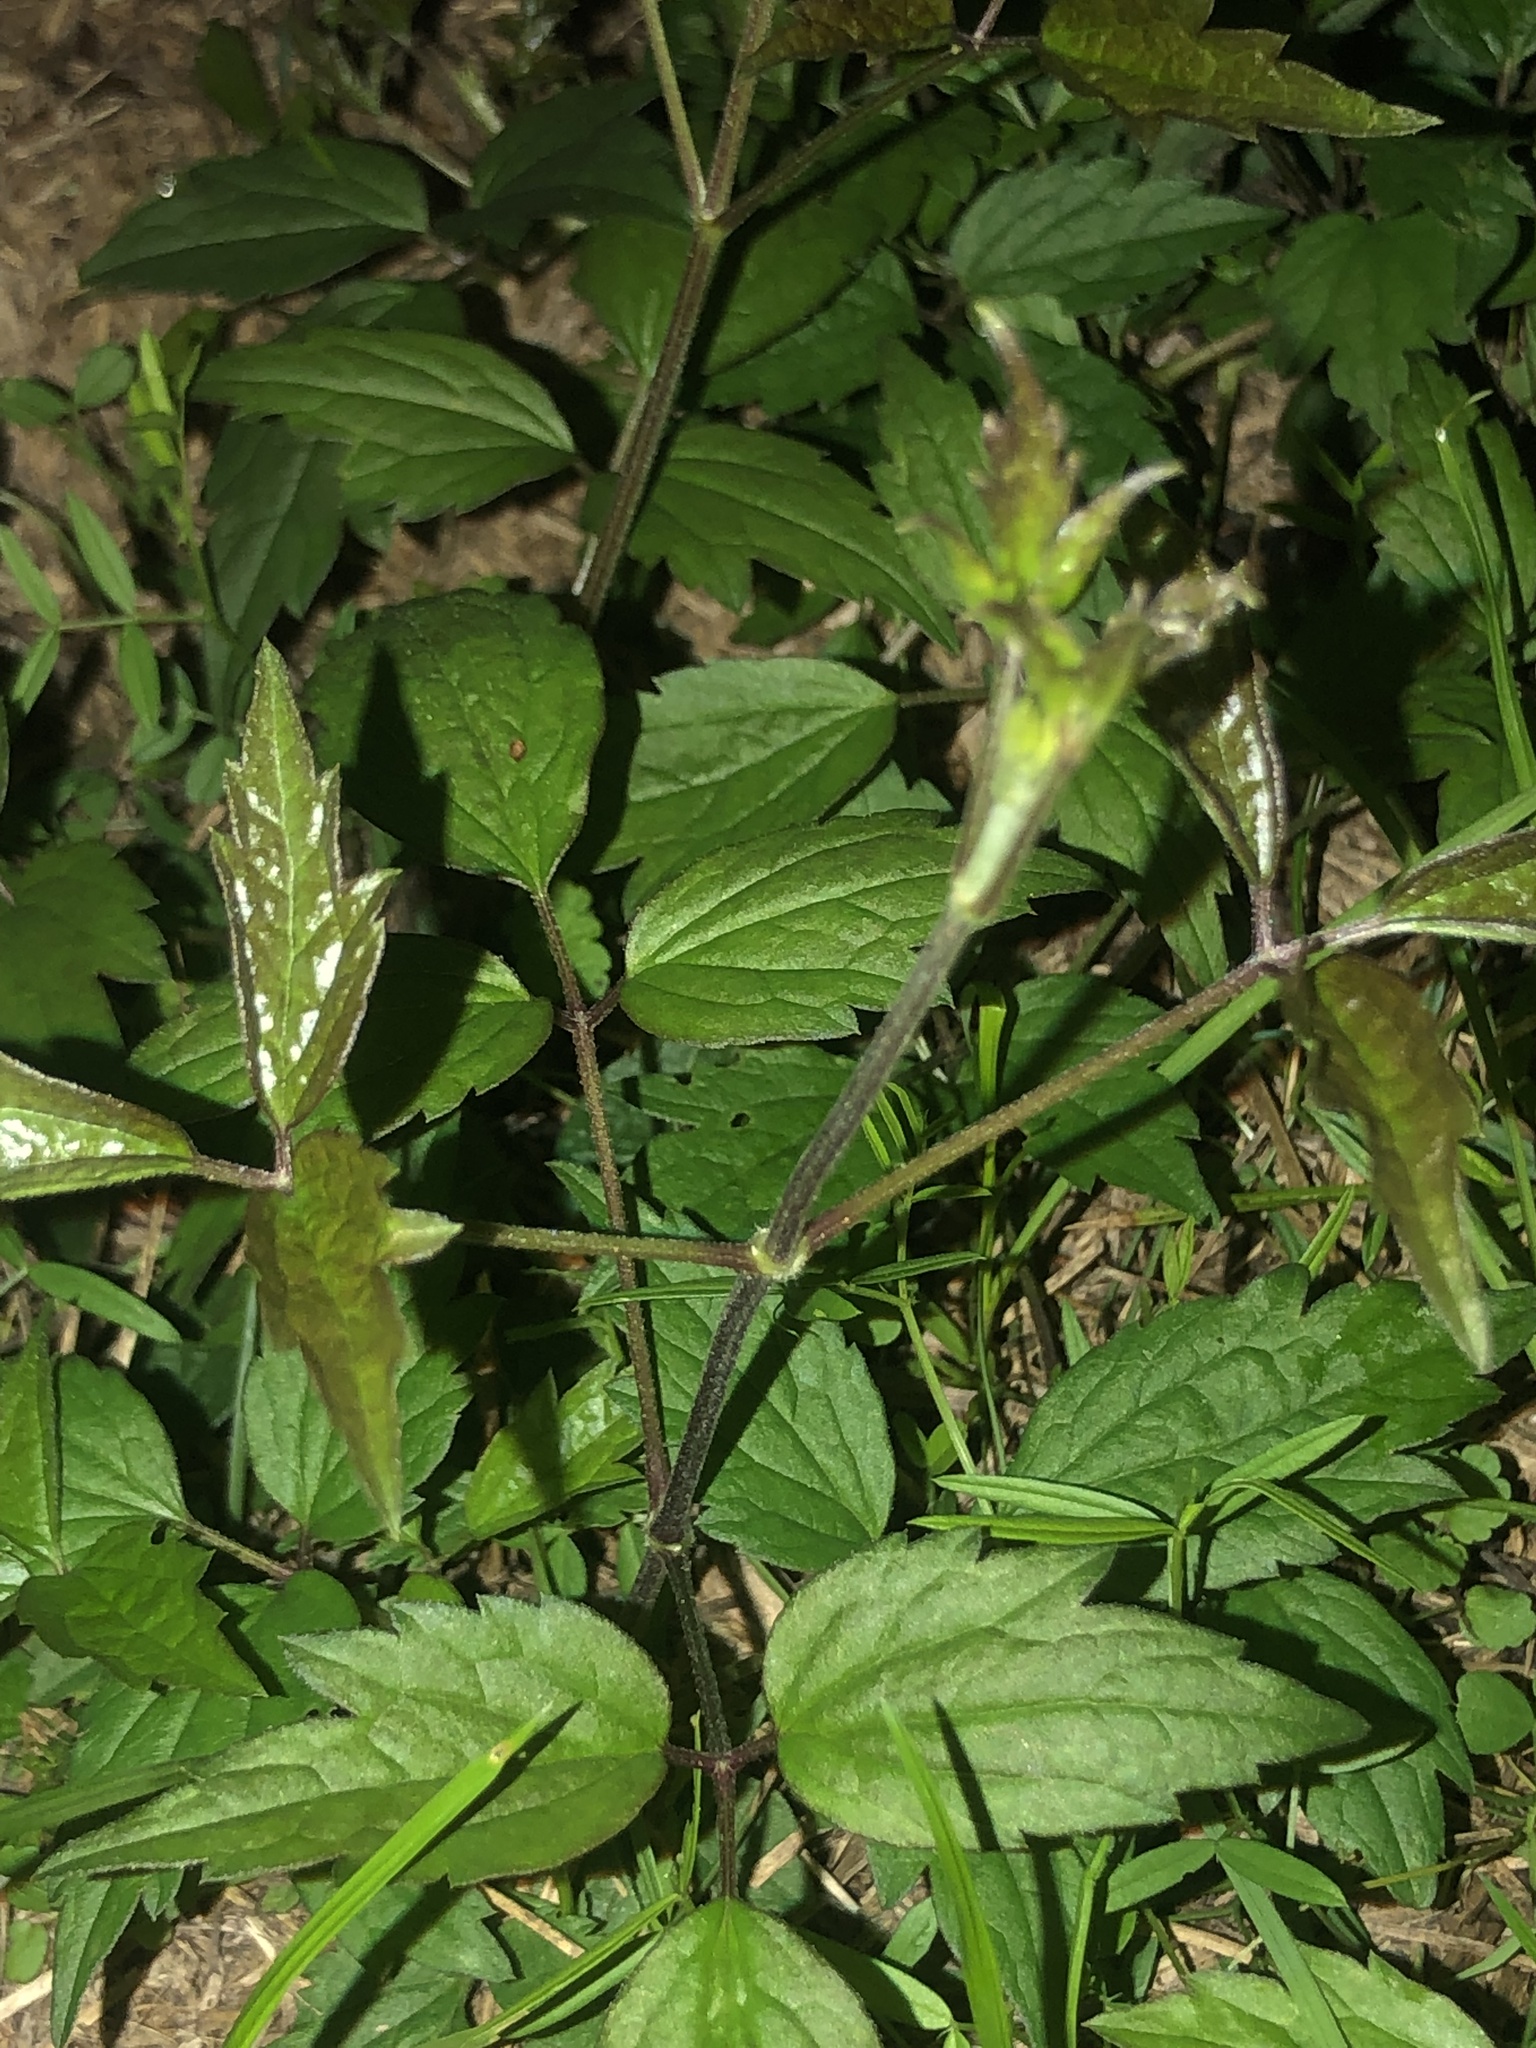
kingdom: Plantae
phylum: Tracheophyta
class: Magnoliopsida
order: Ranunculales
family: Ranunculaceae
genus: Clematis
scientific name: Clematis virginiana
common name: Virgin's-bower
